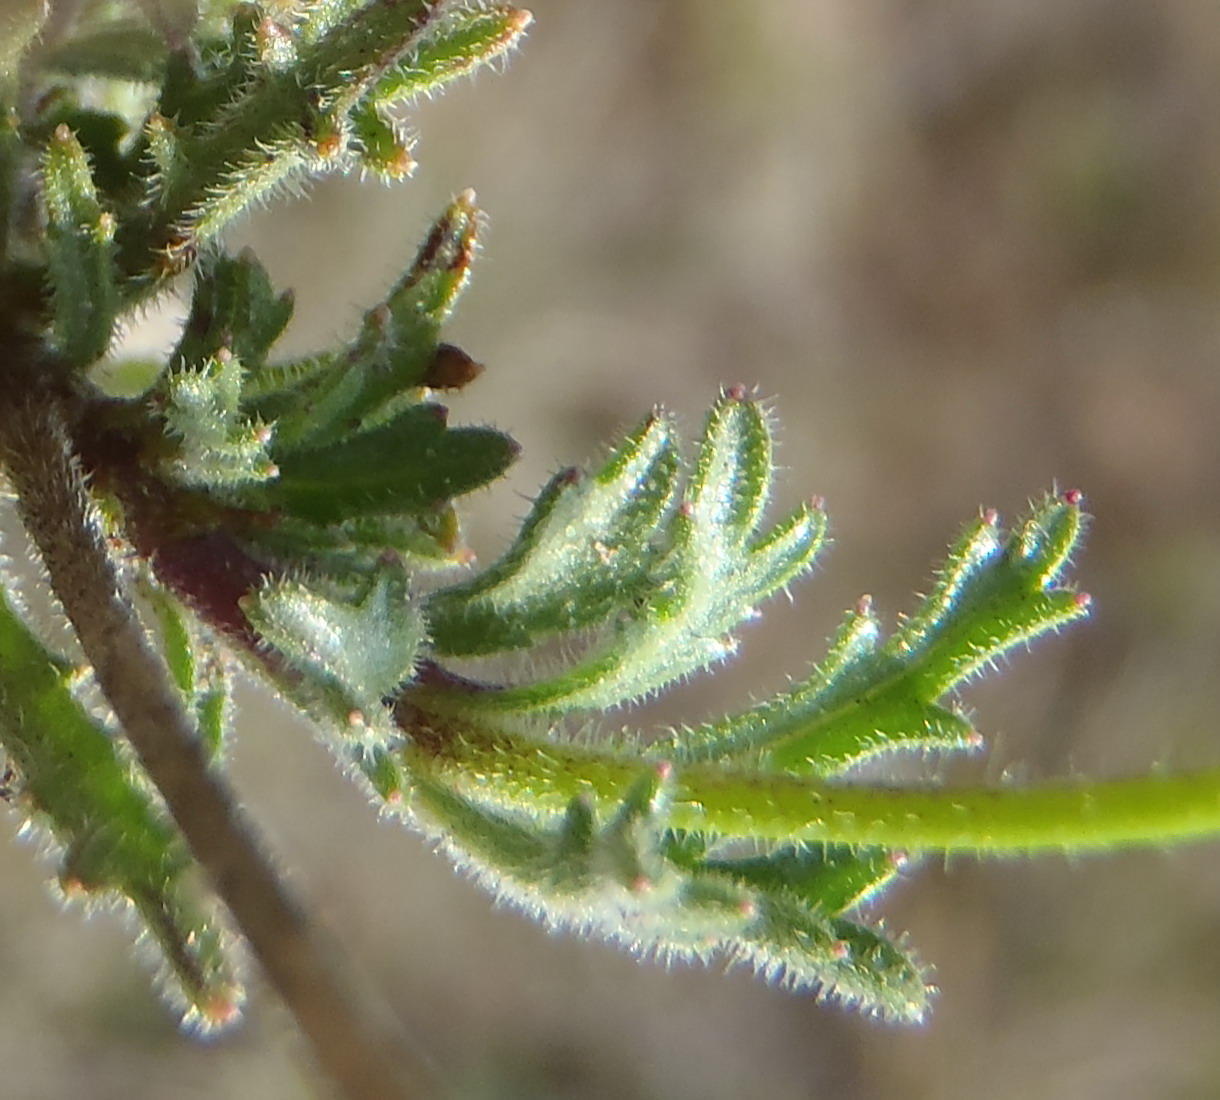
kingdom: Plantae
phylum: Tracheophyta
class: Magnoliopsida
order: Asterales
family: Campanulaceae
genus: Lobelia
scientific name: Lobelia tomentosa
